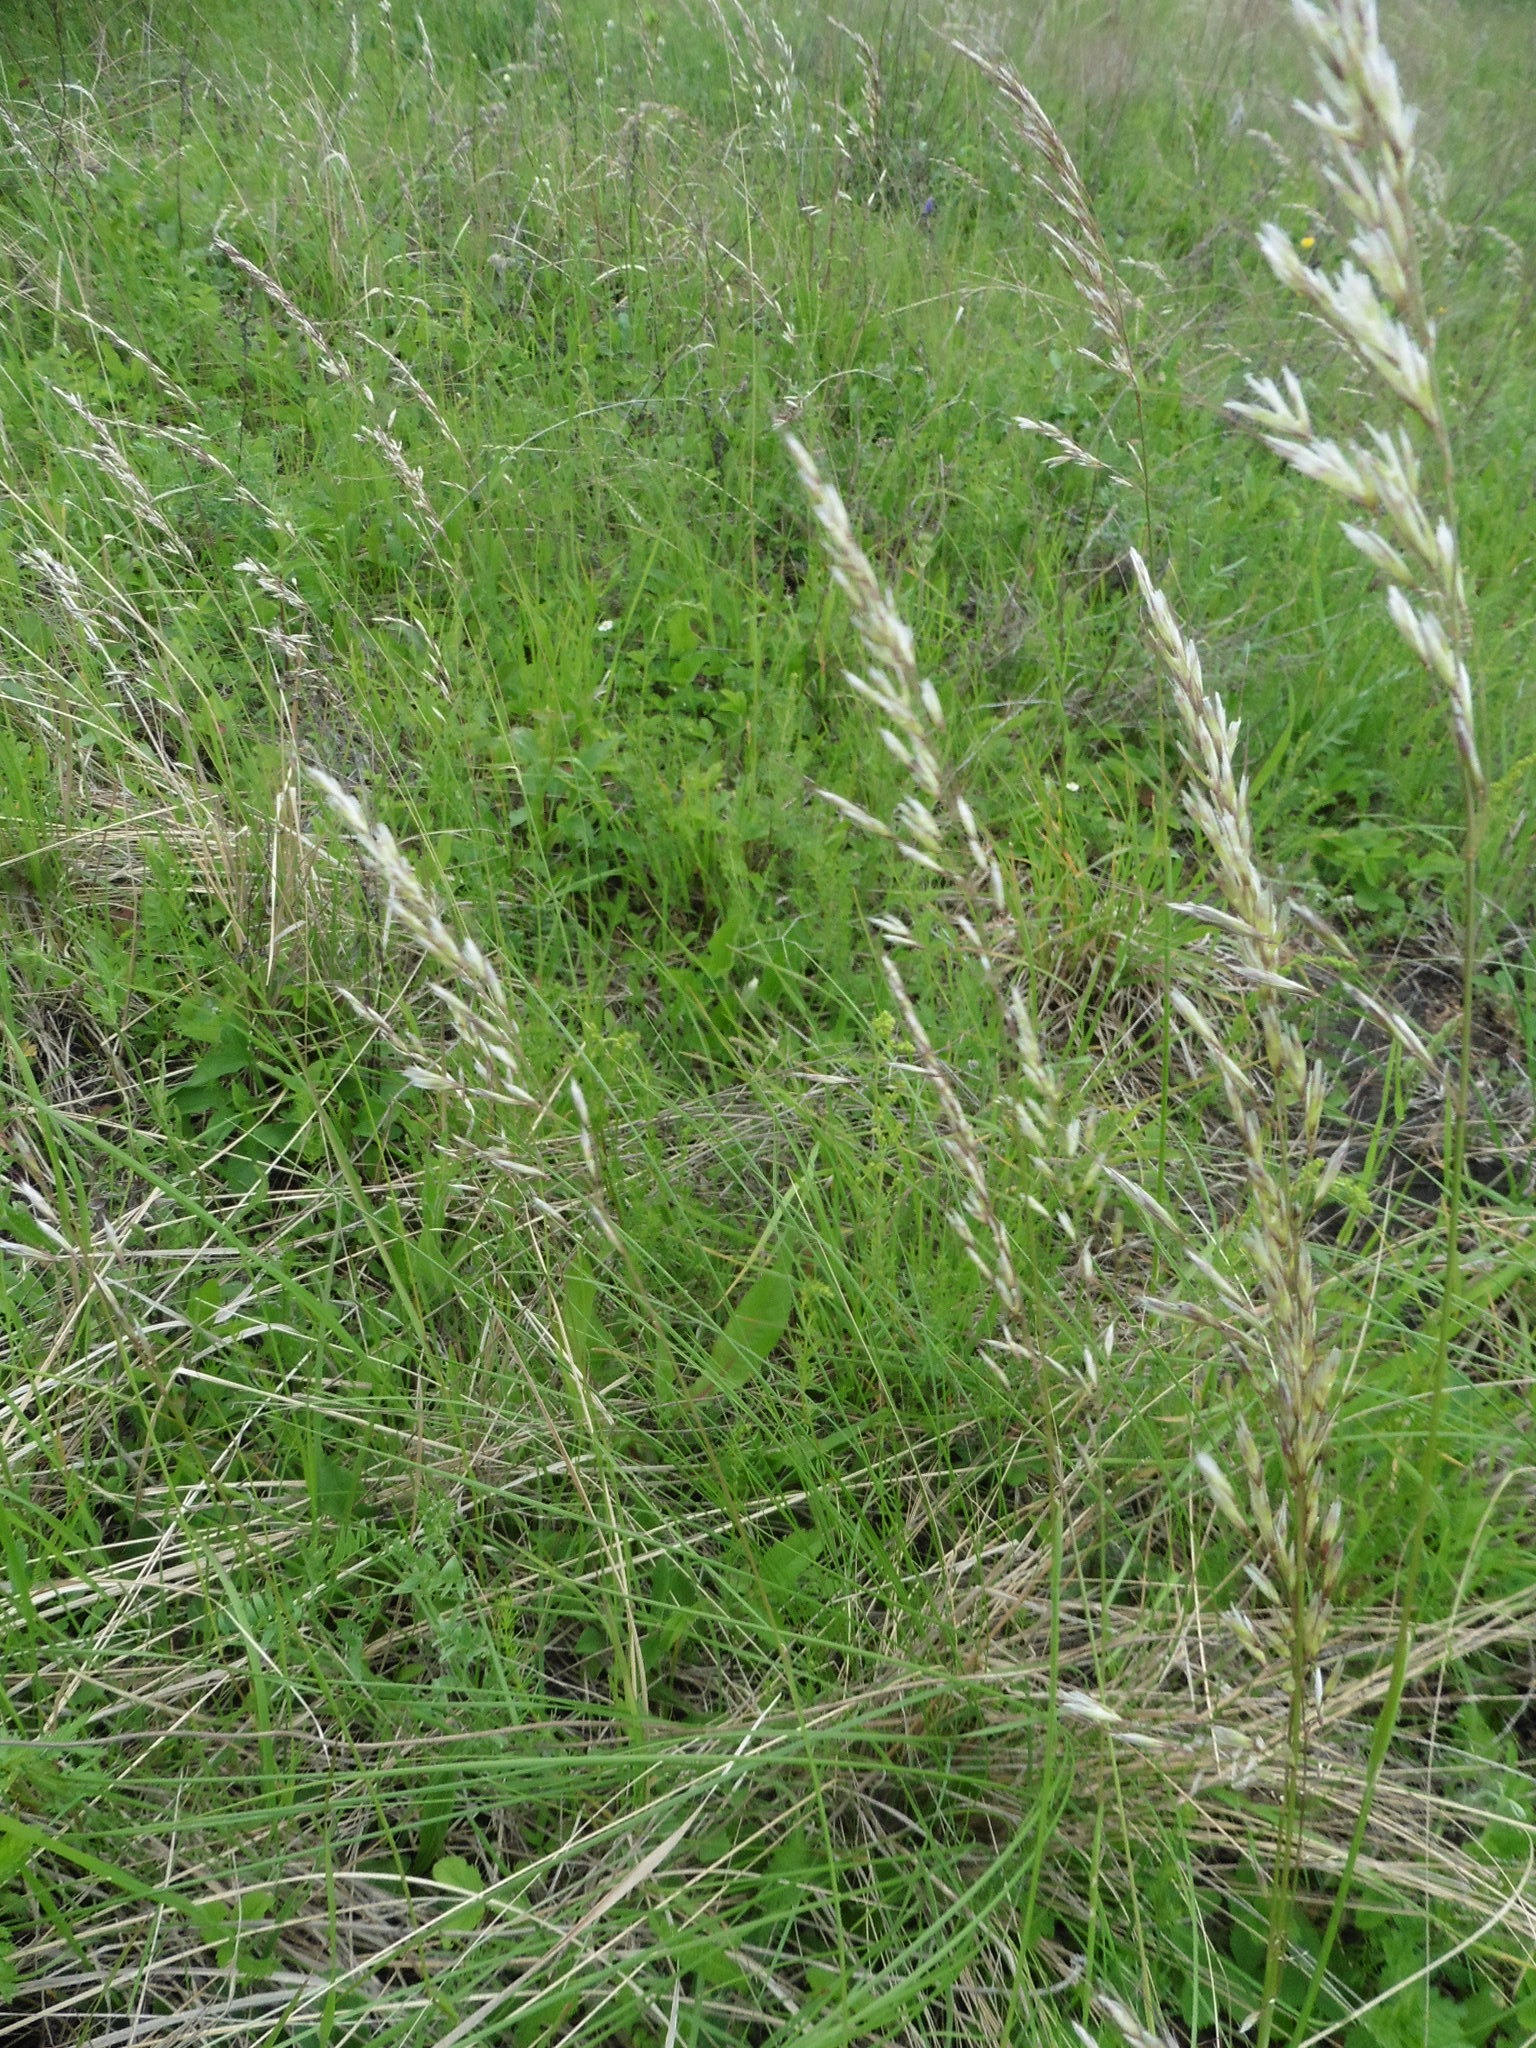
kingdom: Plantae
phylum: Tracheophyta
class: Liliopsida
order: Poales
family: Poaceae
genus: Avenula
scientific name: Avenula pubescens
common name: Downy alpine oatgrass
